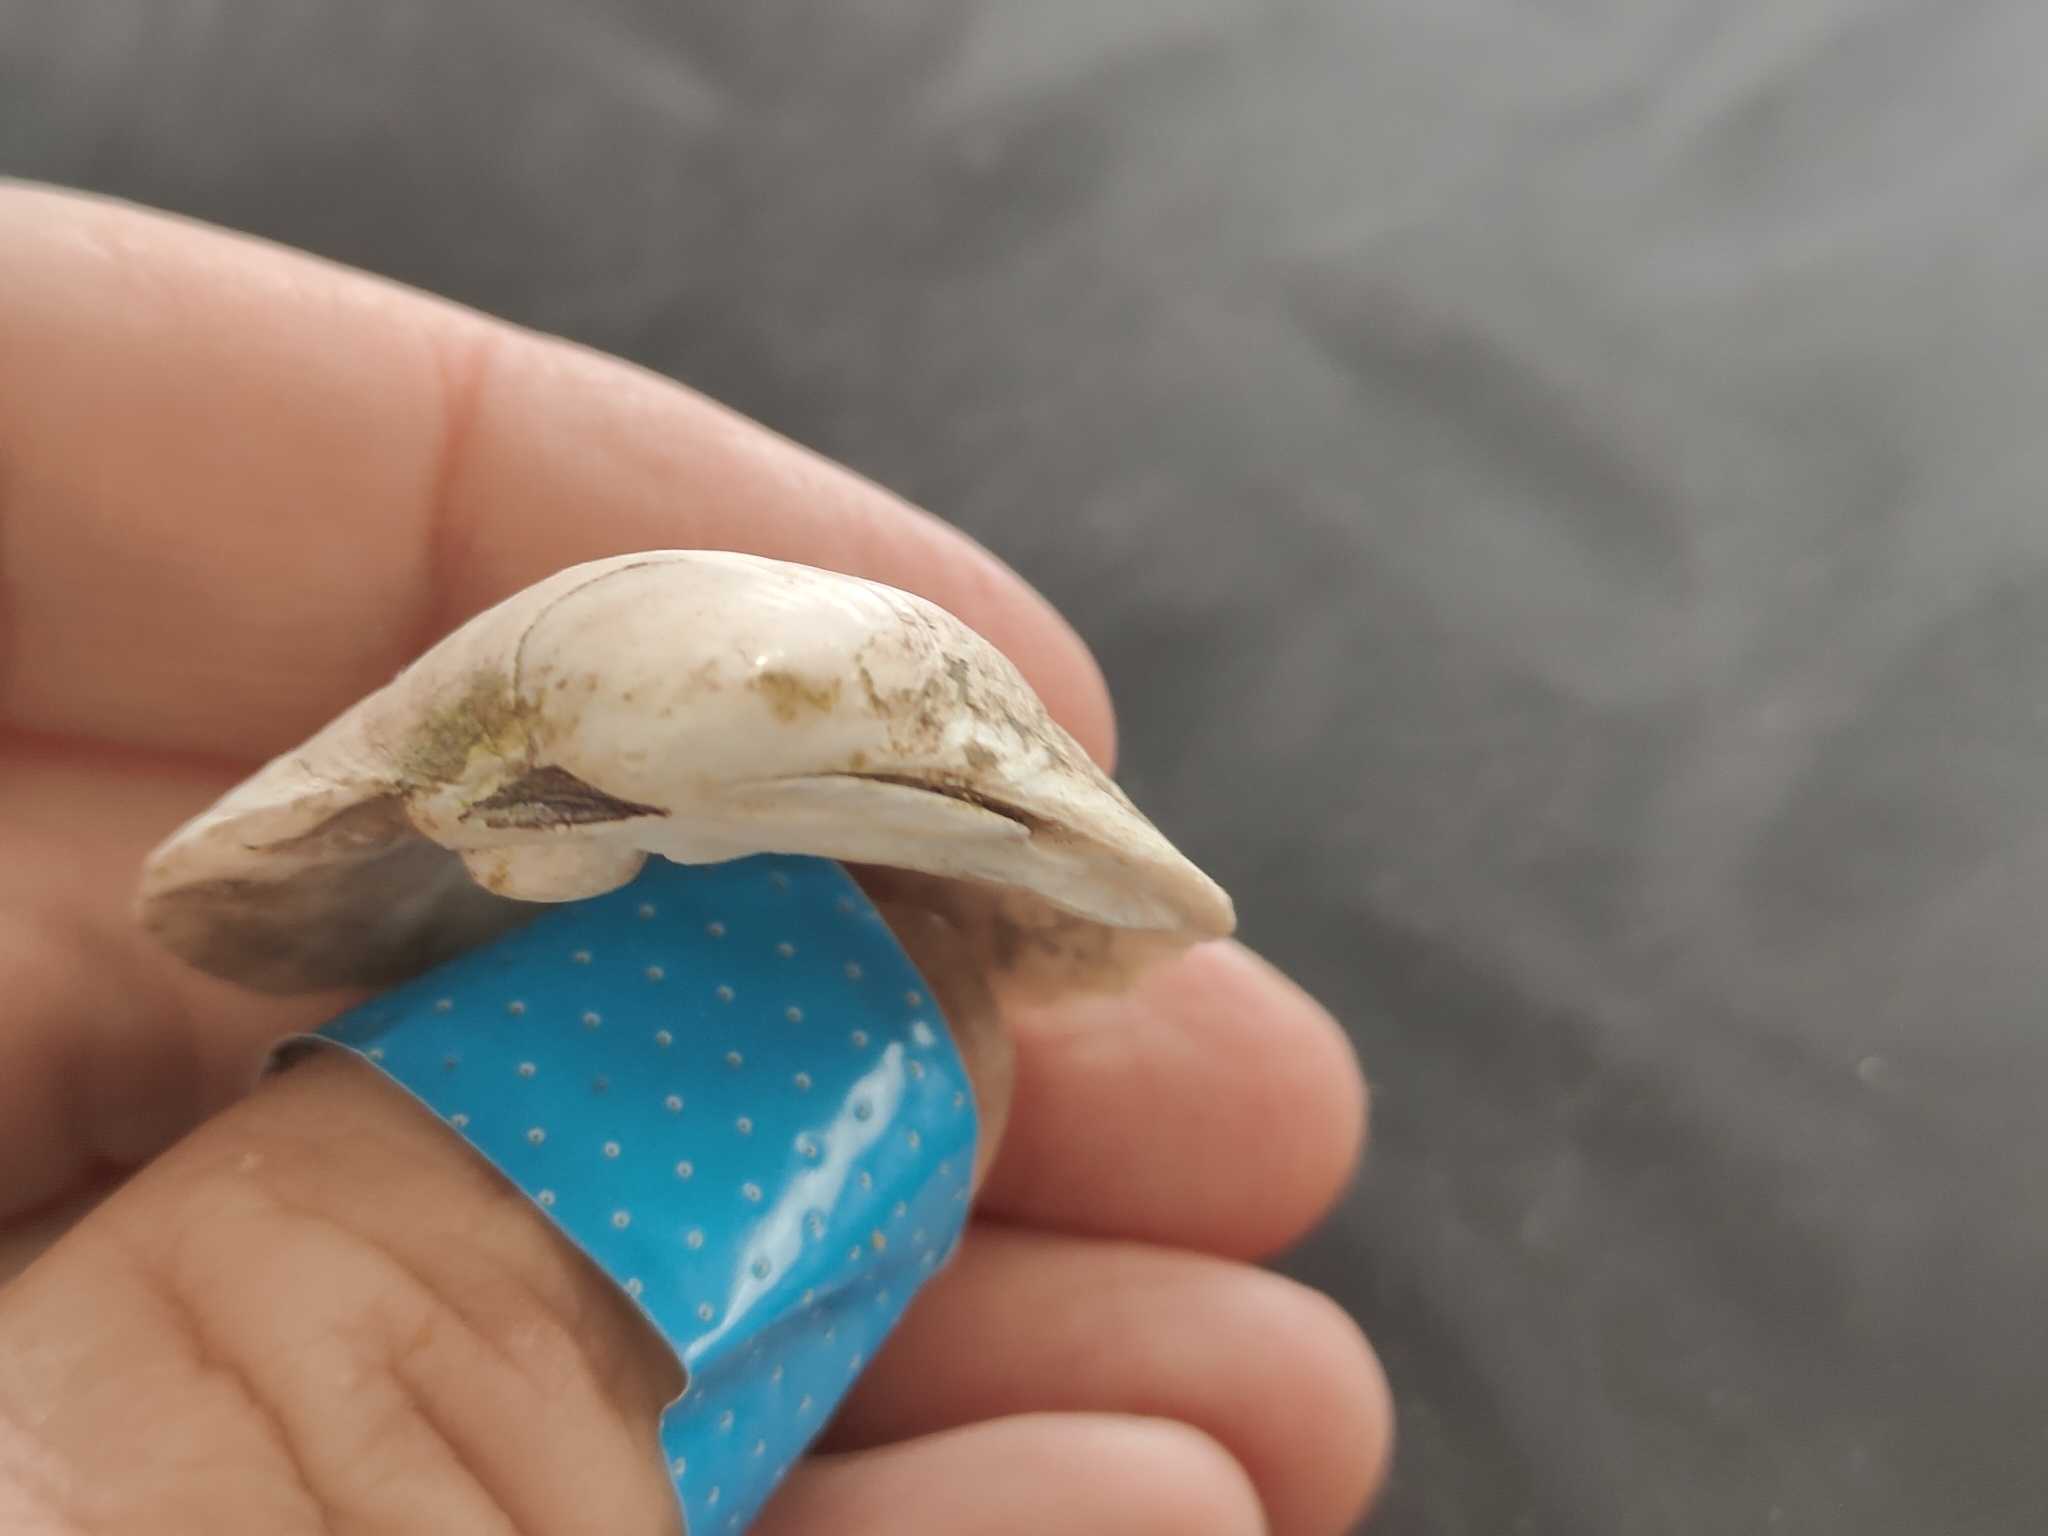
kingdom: Animalia
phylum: Mollusca
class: Bivalvia
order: Unionida
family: Unionidae
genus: Cyclonaias
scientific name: Cyclonaias pustulosa
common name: Pimpleback
